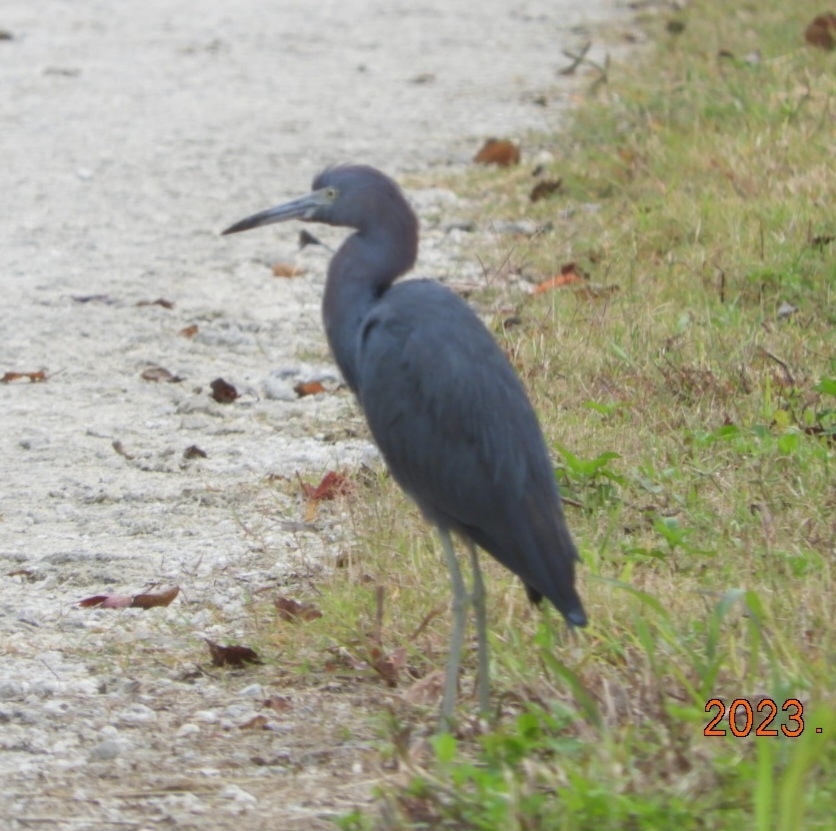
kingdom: Animalia
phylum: Chordata
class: Aves
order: Pelecaniformes
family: Ardeidae
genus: Egretta
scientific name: Egretta caerulea
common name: Little blue heron
